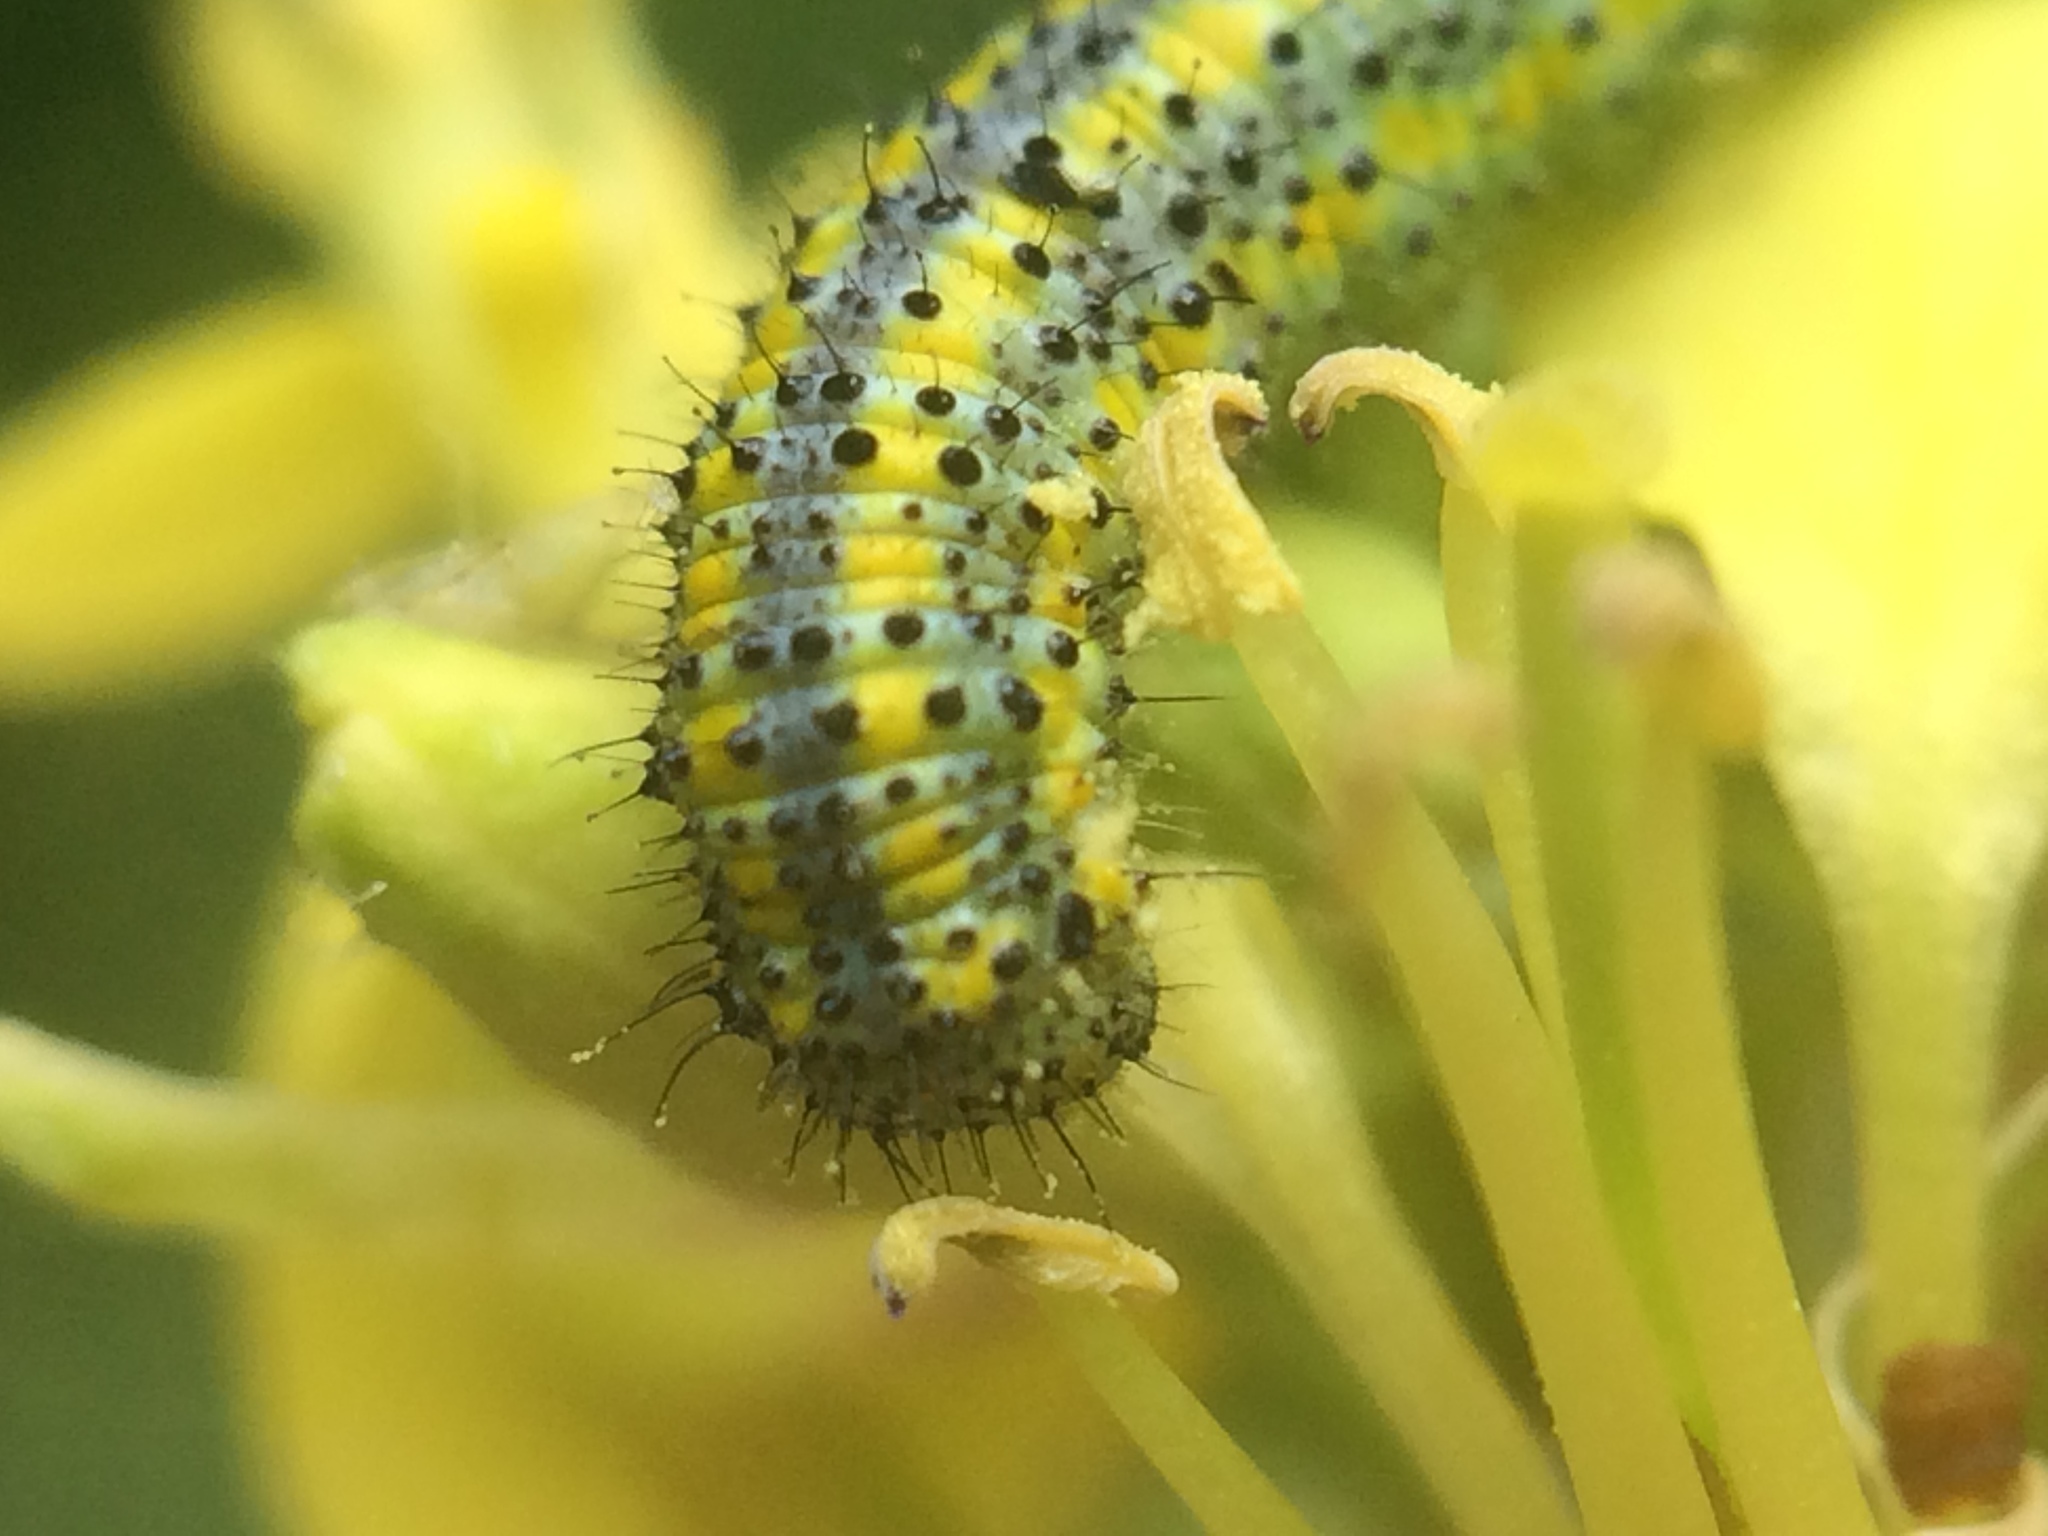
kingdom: Animalia
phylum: Arthropoda
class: Insecta
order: Lepidoptera
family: Pieridae
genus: Pontia
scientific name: Pontia protodice
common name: Checkered white
